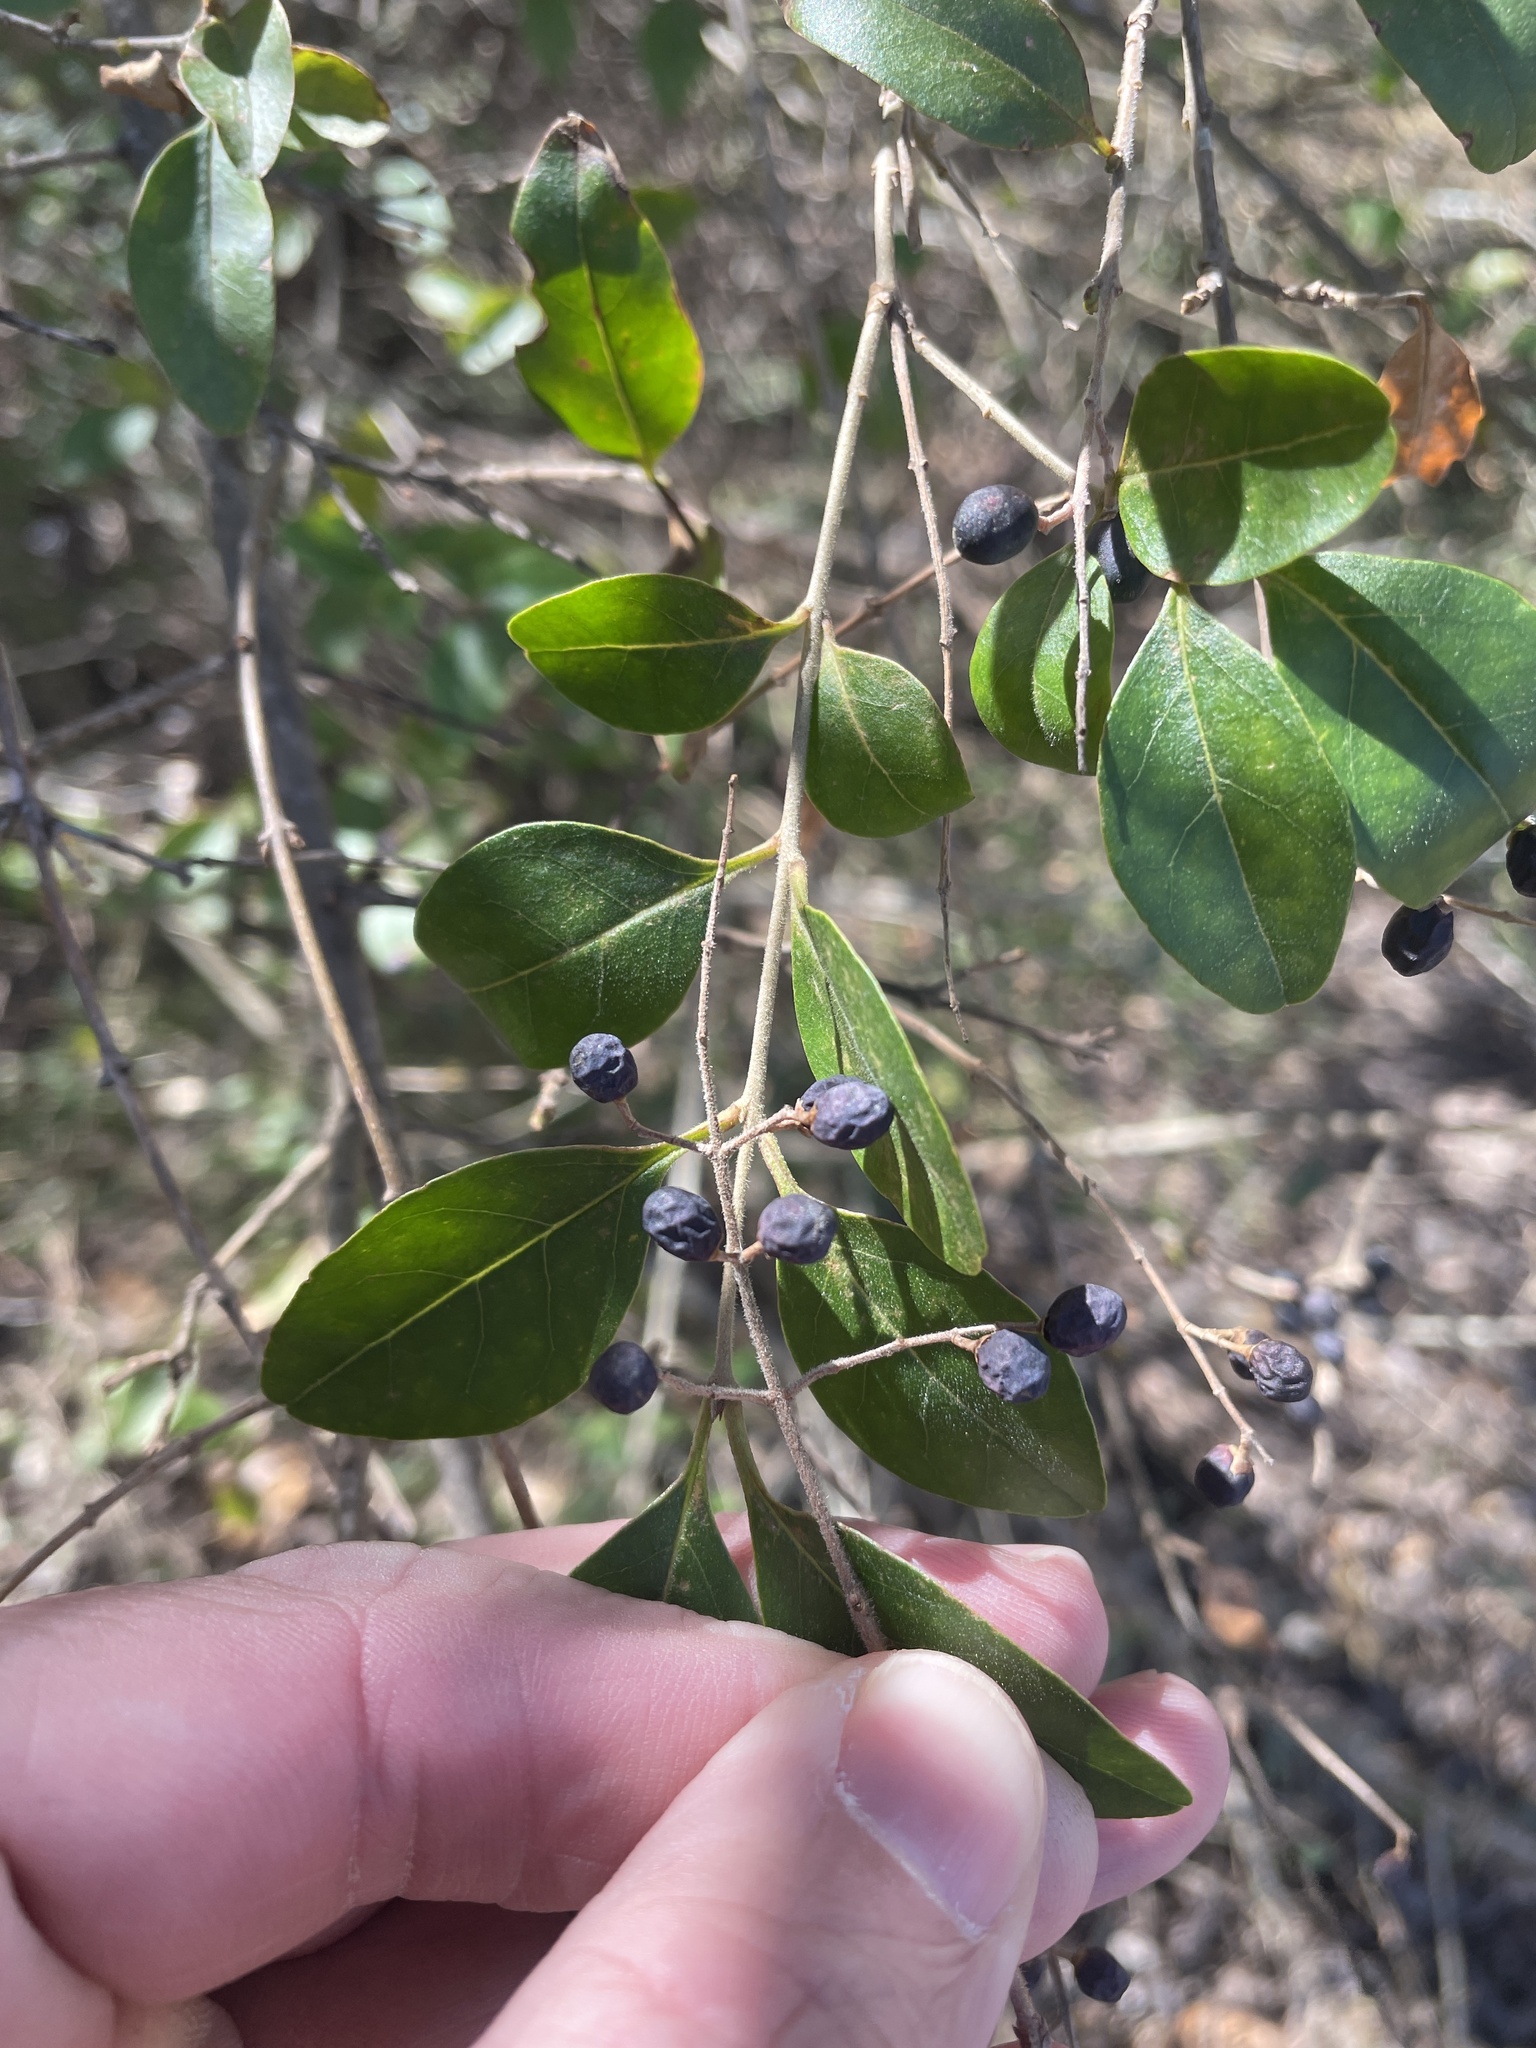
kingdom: Plantae
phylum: Tracheophyta
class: Magnoliopsida
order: Lamiales
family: Oleaceae
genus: Ligustrum
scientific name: Ligustrum sinense
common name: Chinese privet
